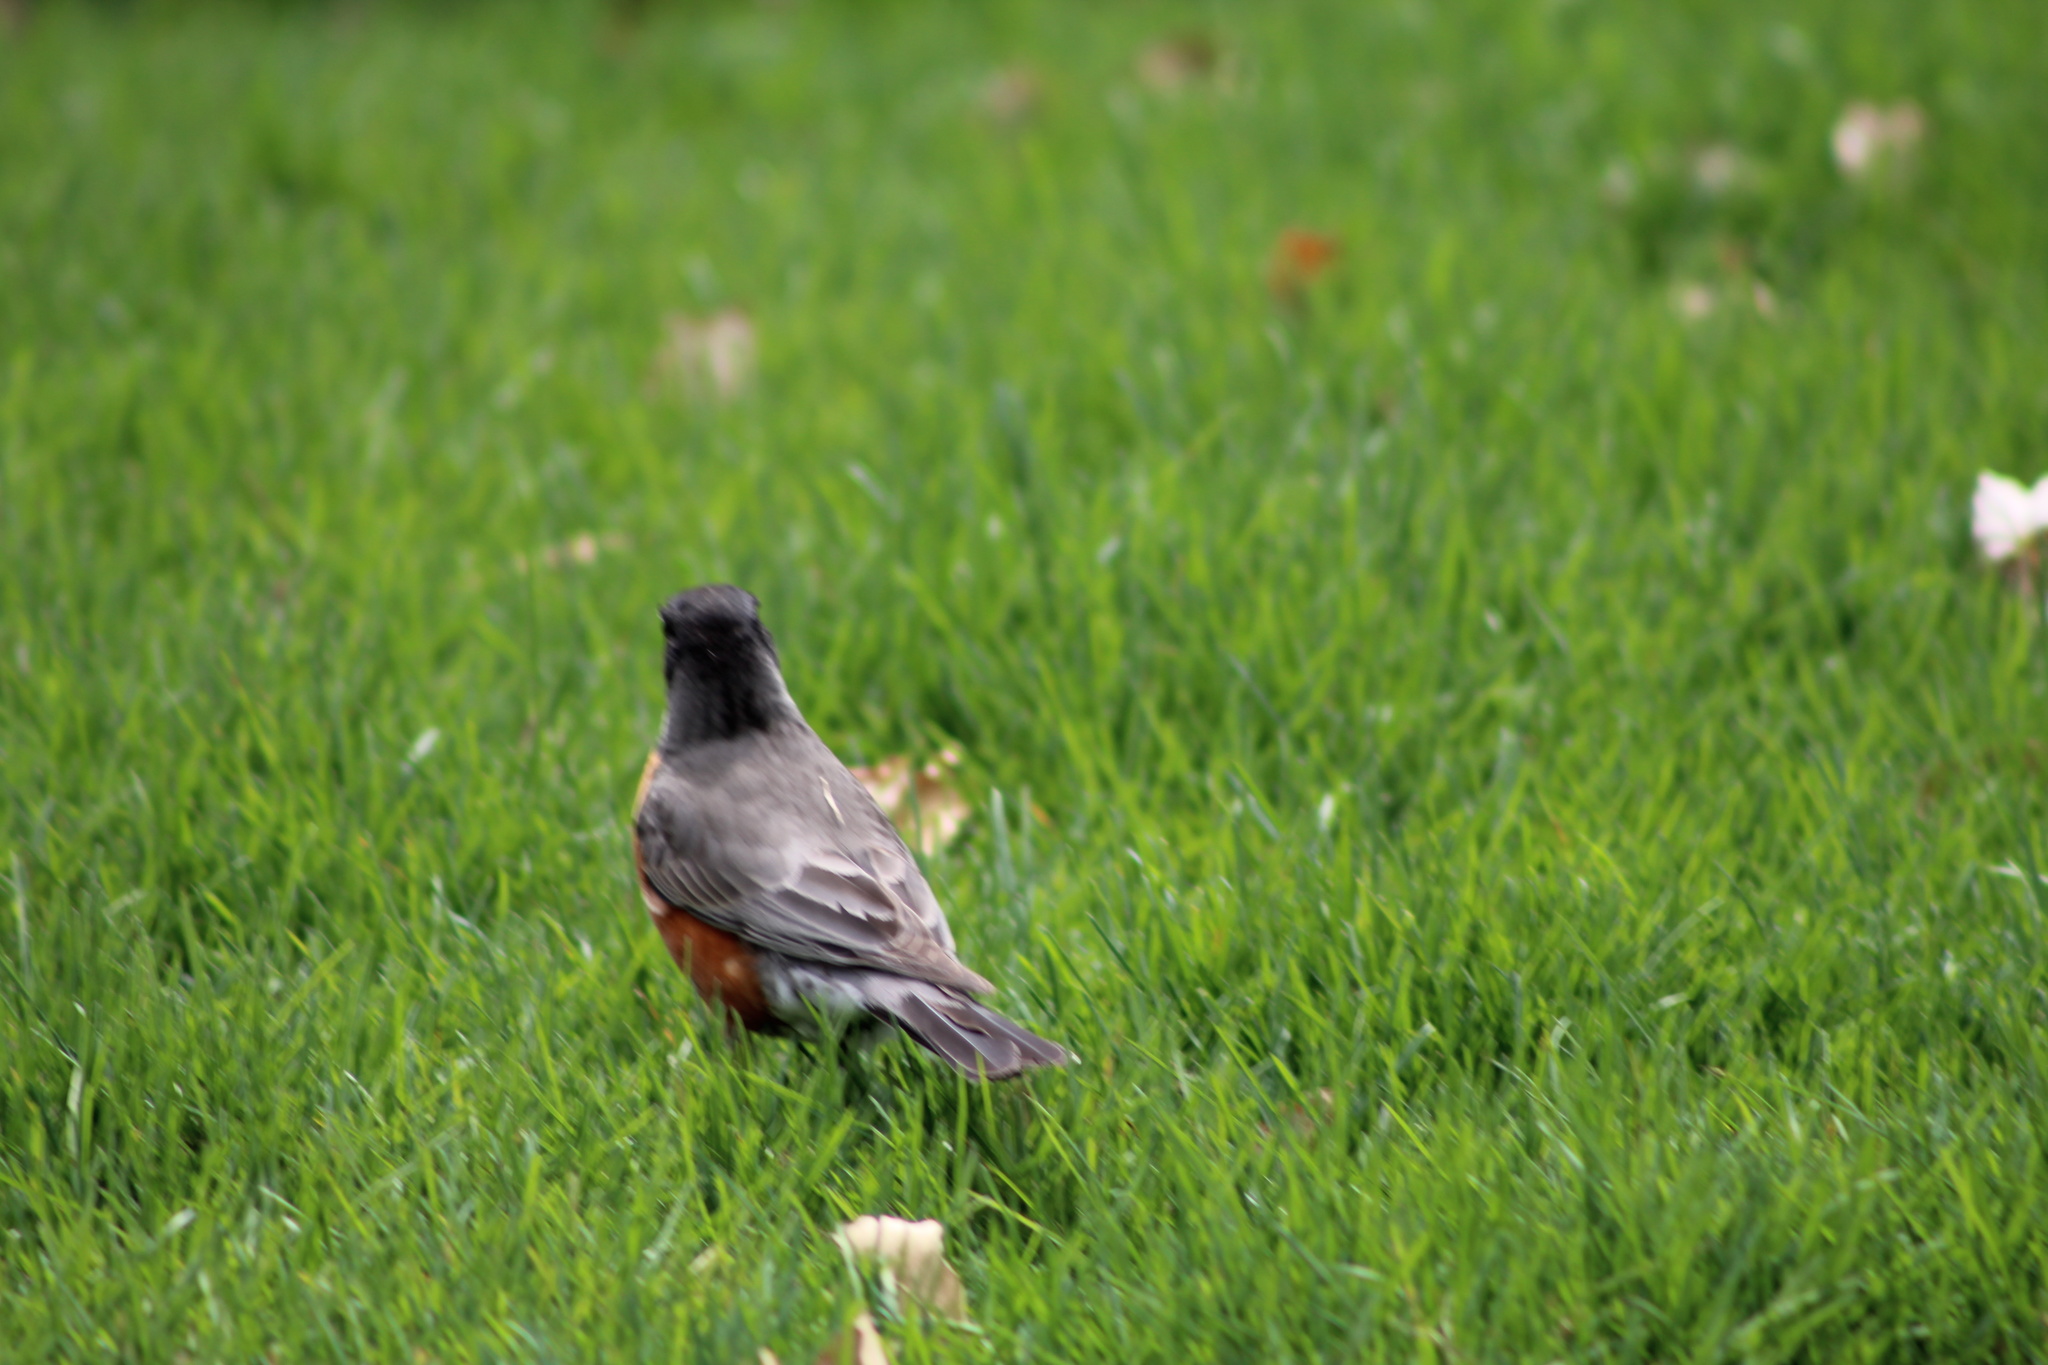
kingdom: Animalia
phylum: Chordata
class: Aves
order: Passeriformes
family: Turdidae
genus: Turdus
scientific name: Turdus migratorius
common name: American robin
